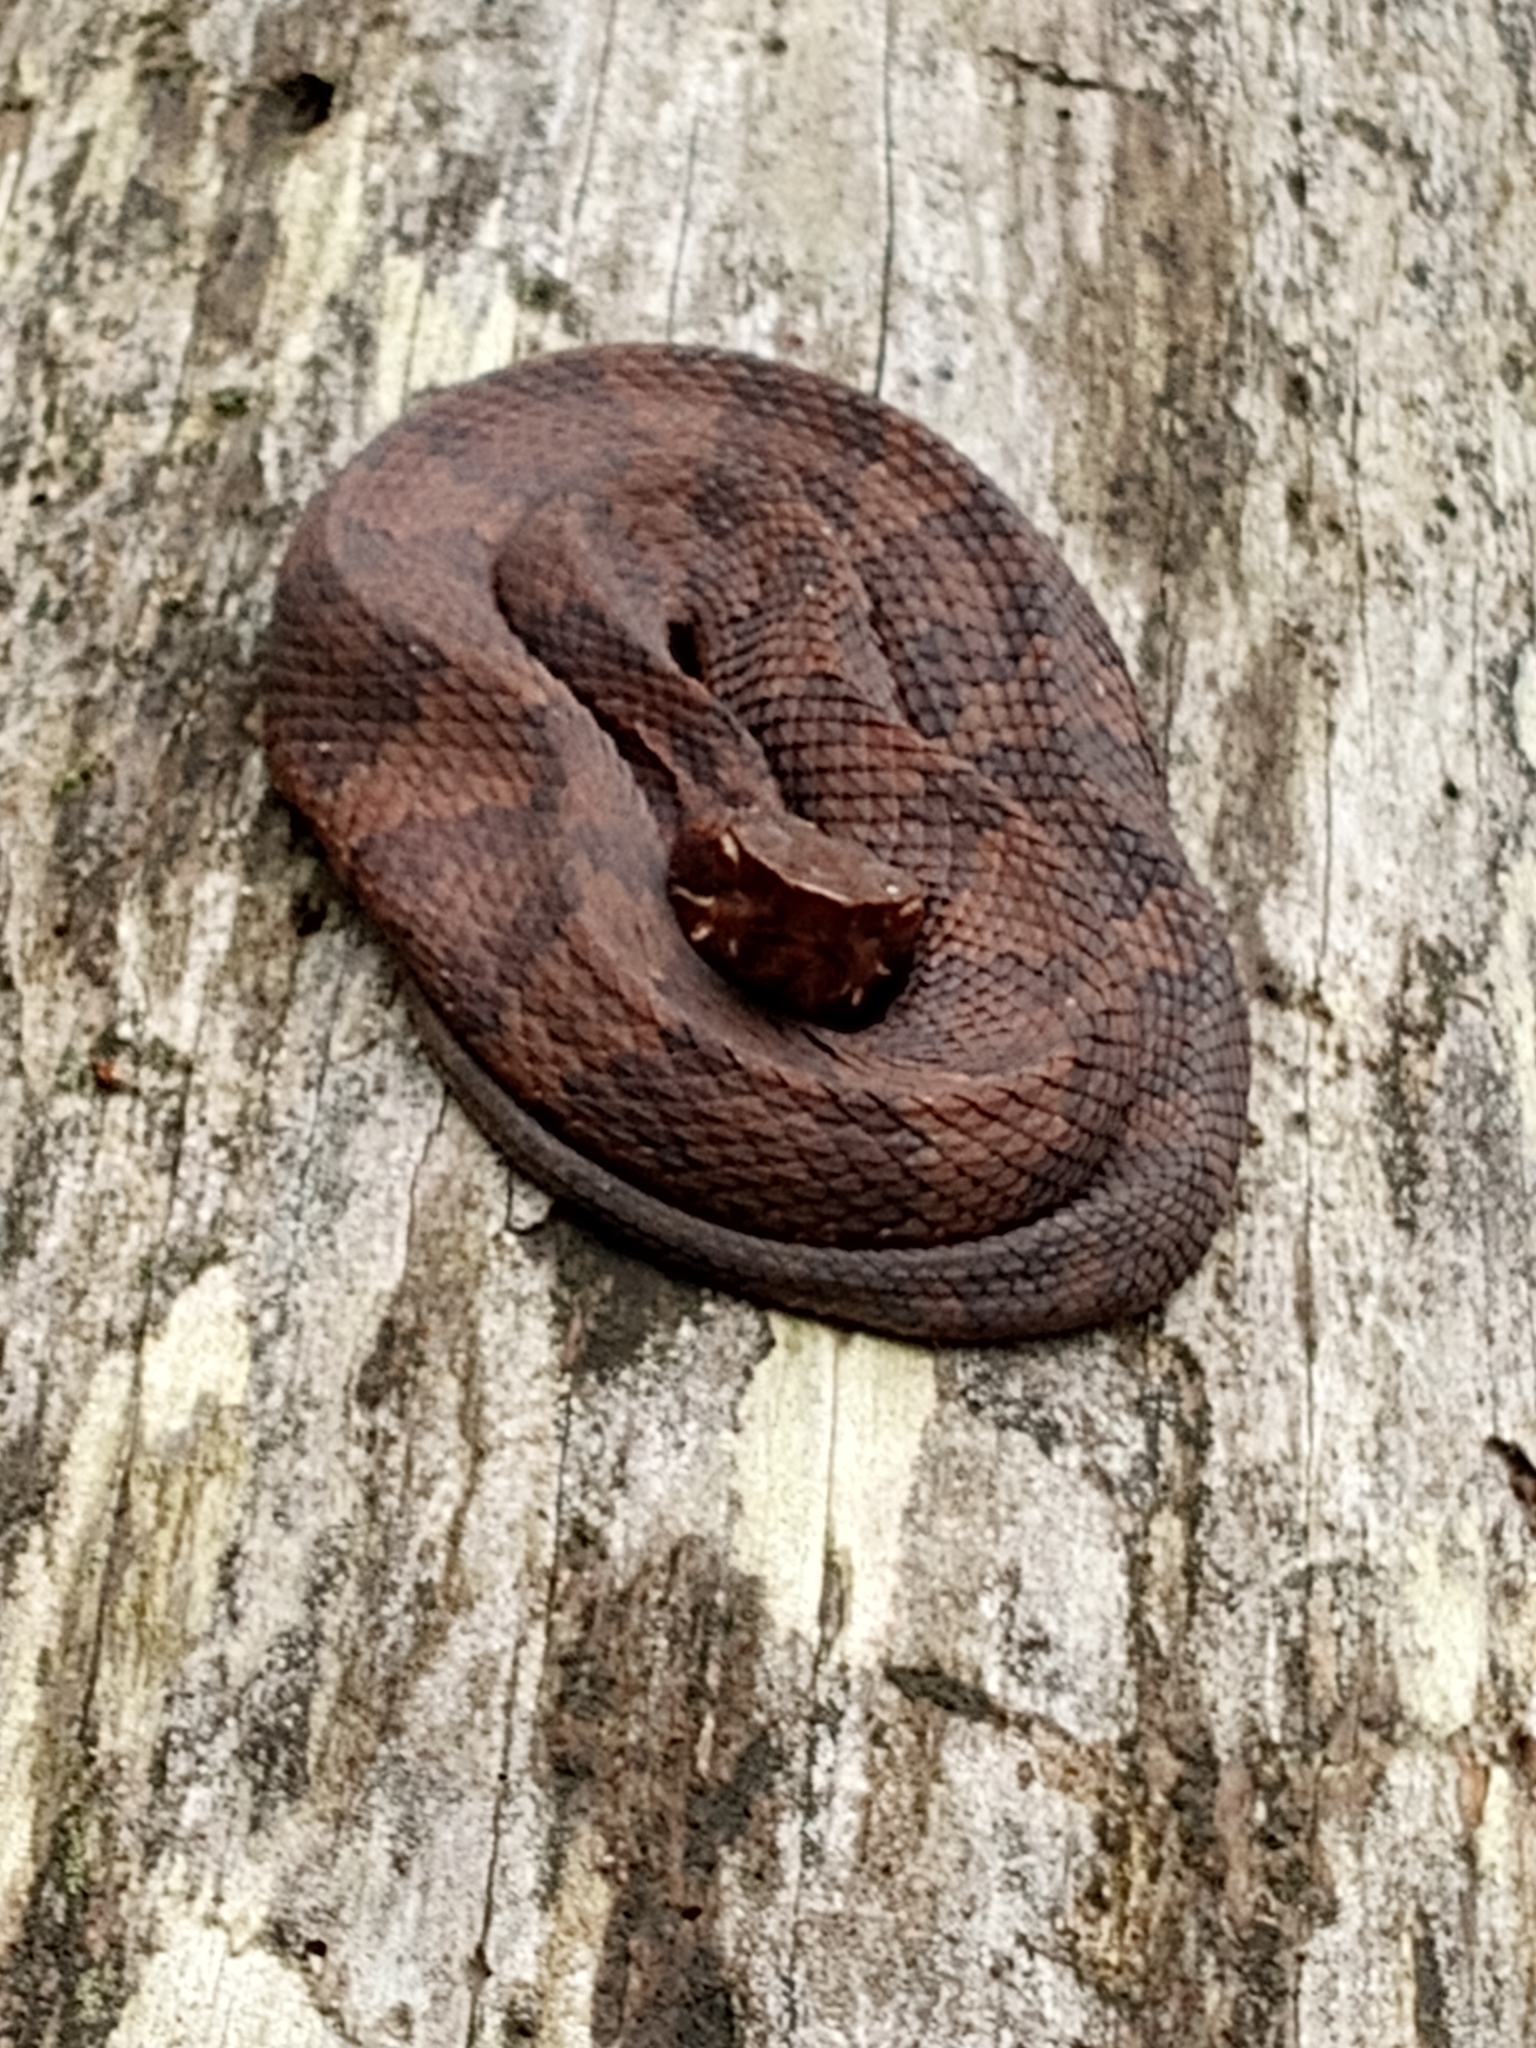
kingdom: Animalia
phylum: Chordata
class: Squamata
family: Viperidae
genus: Agkistrodon
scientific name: Agkistrodon piscivorus
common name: Cottonmouth
